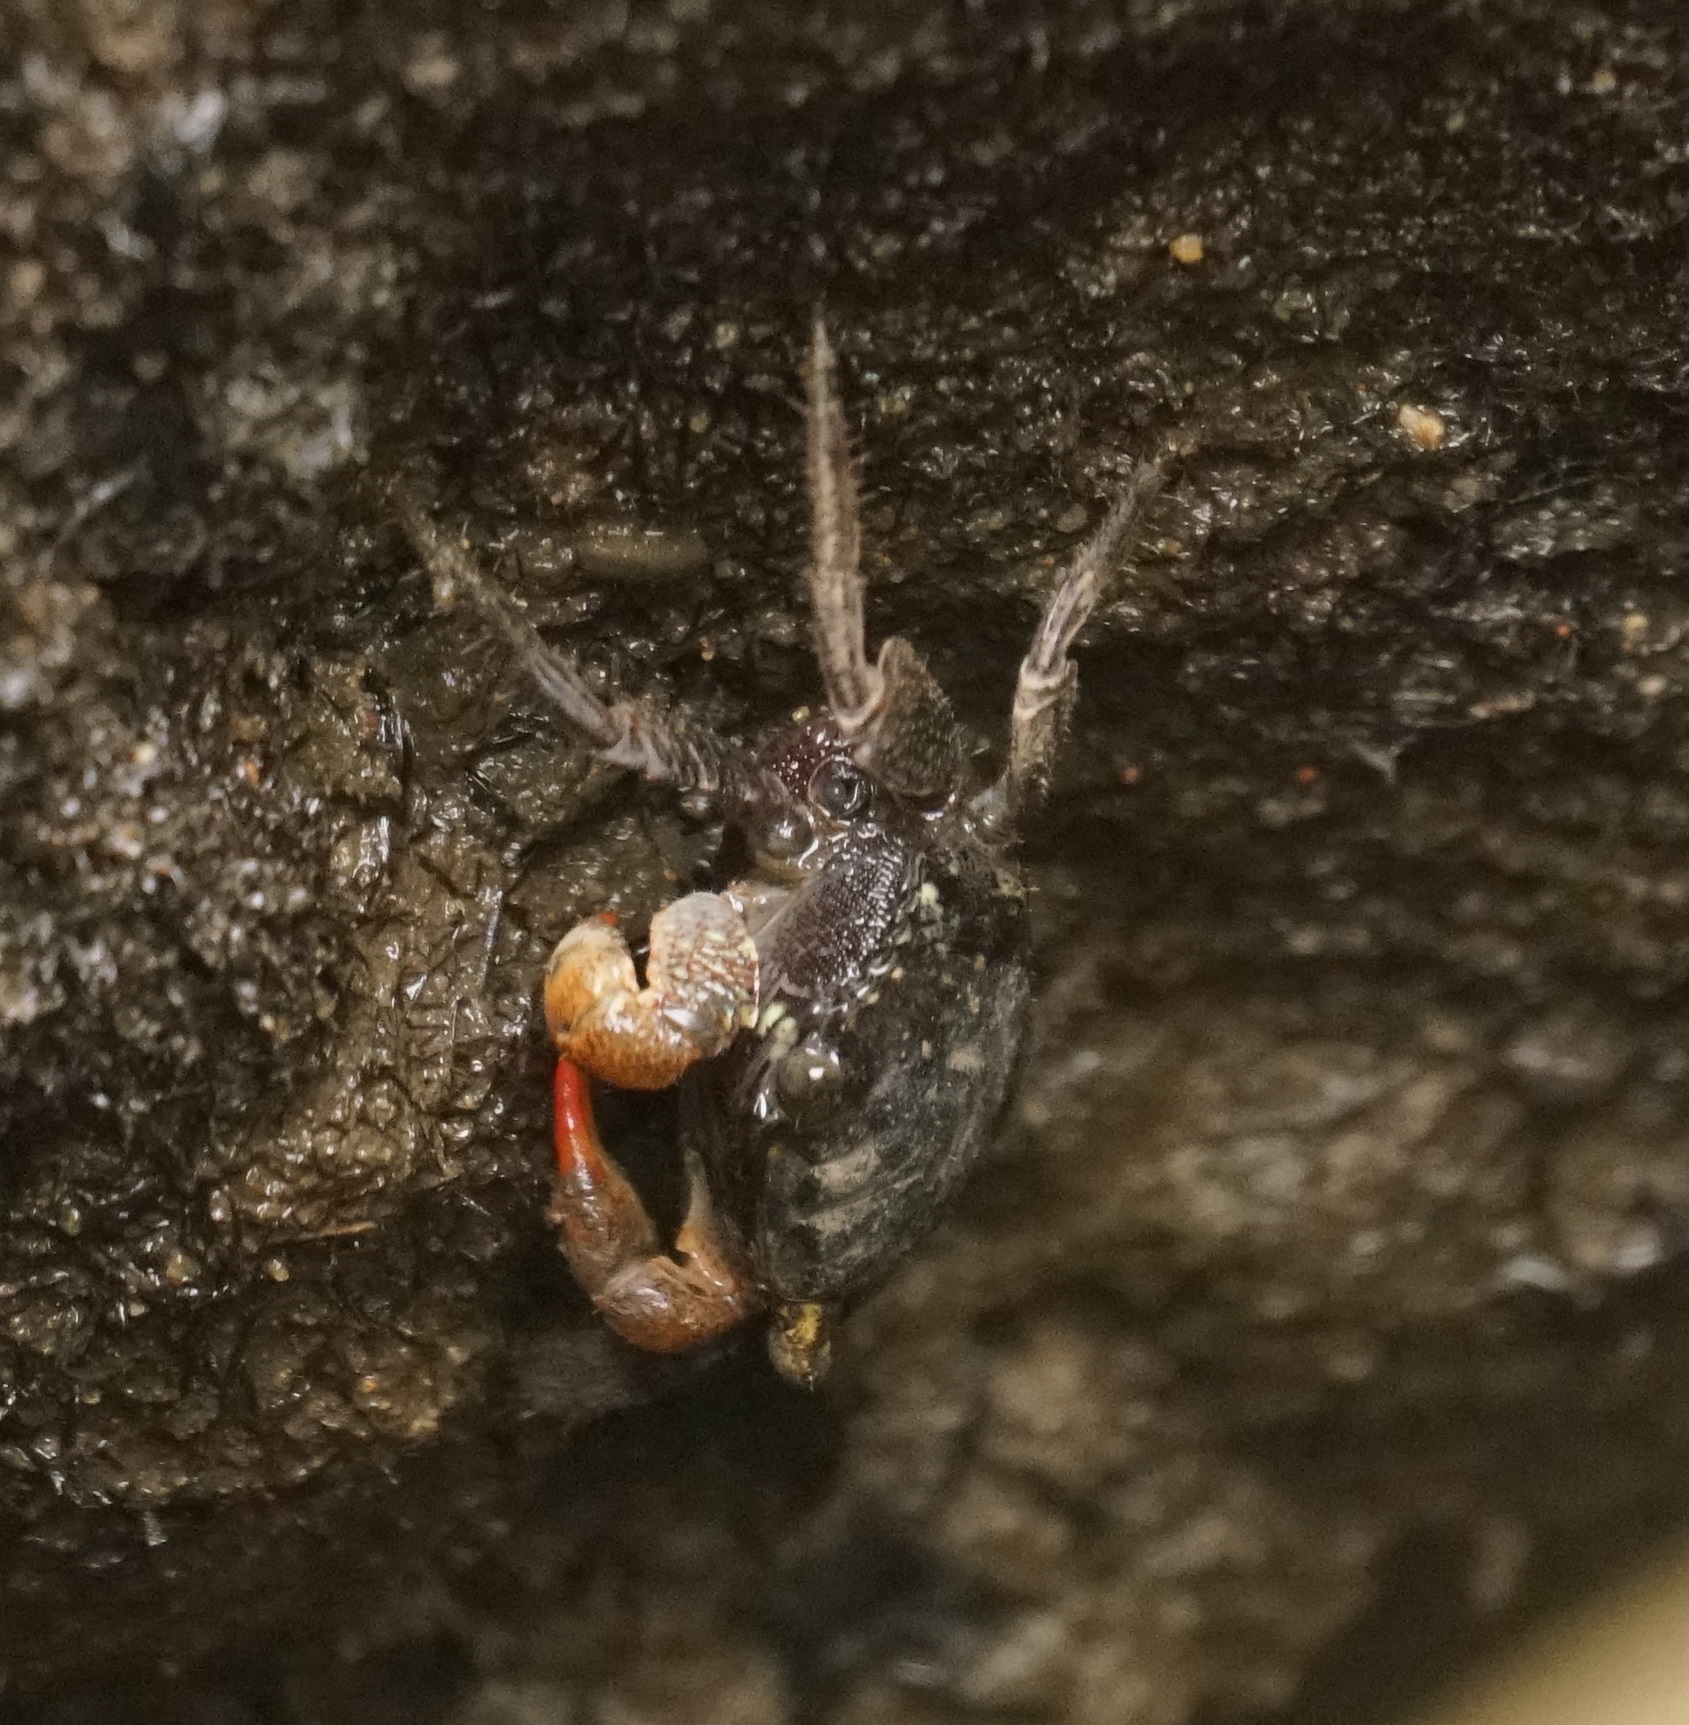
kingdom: Animalia
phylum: Arthropoda
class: Malacostraca
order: Decapoda
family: Sesarmidae
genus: Parasesarma
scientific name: Parasesarma erythodactylum
